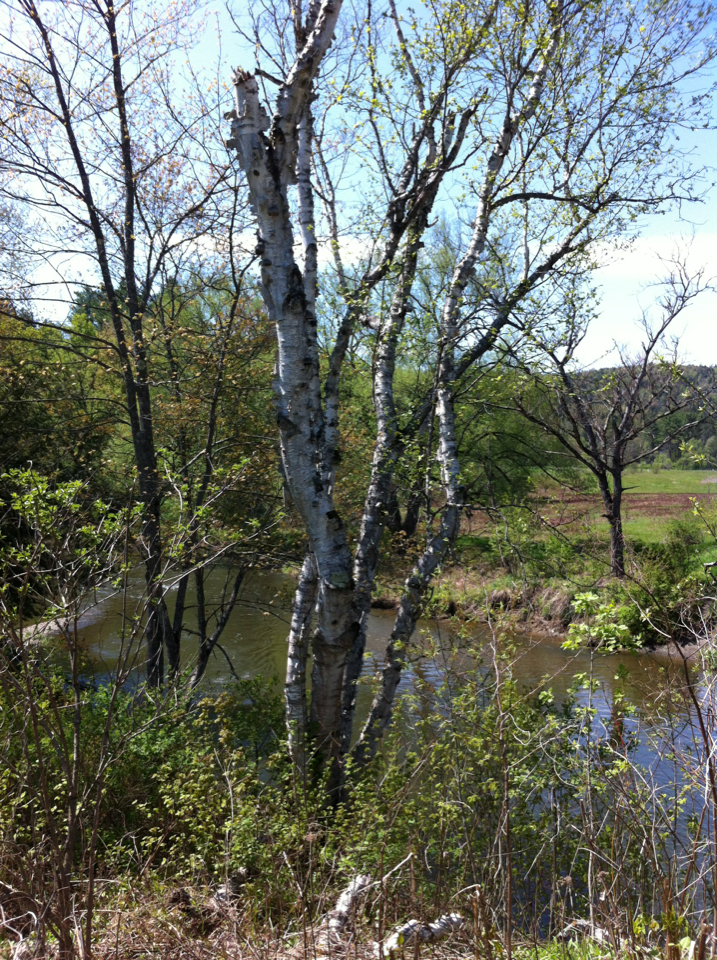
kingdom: Plantae
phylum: Tracheophyta
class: Magnoliopsida
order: Fagales
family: Betulaceae
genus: Betula
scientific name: Betula papyrifera
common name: Paper birch
